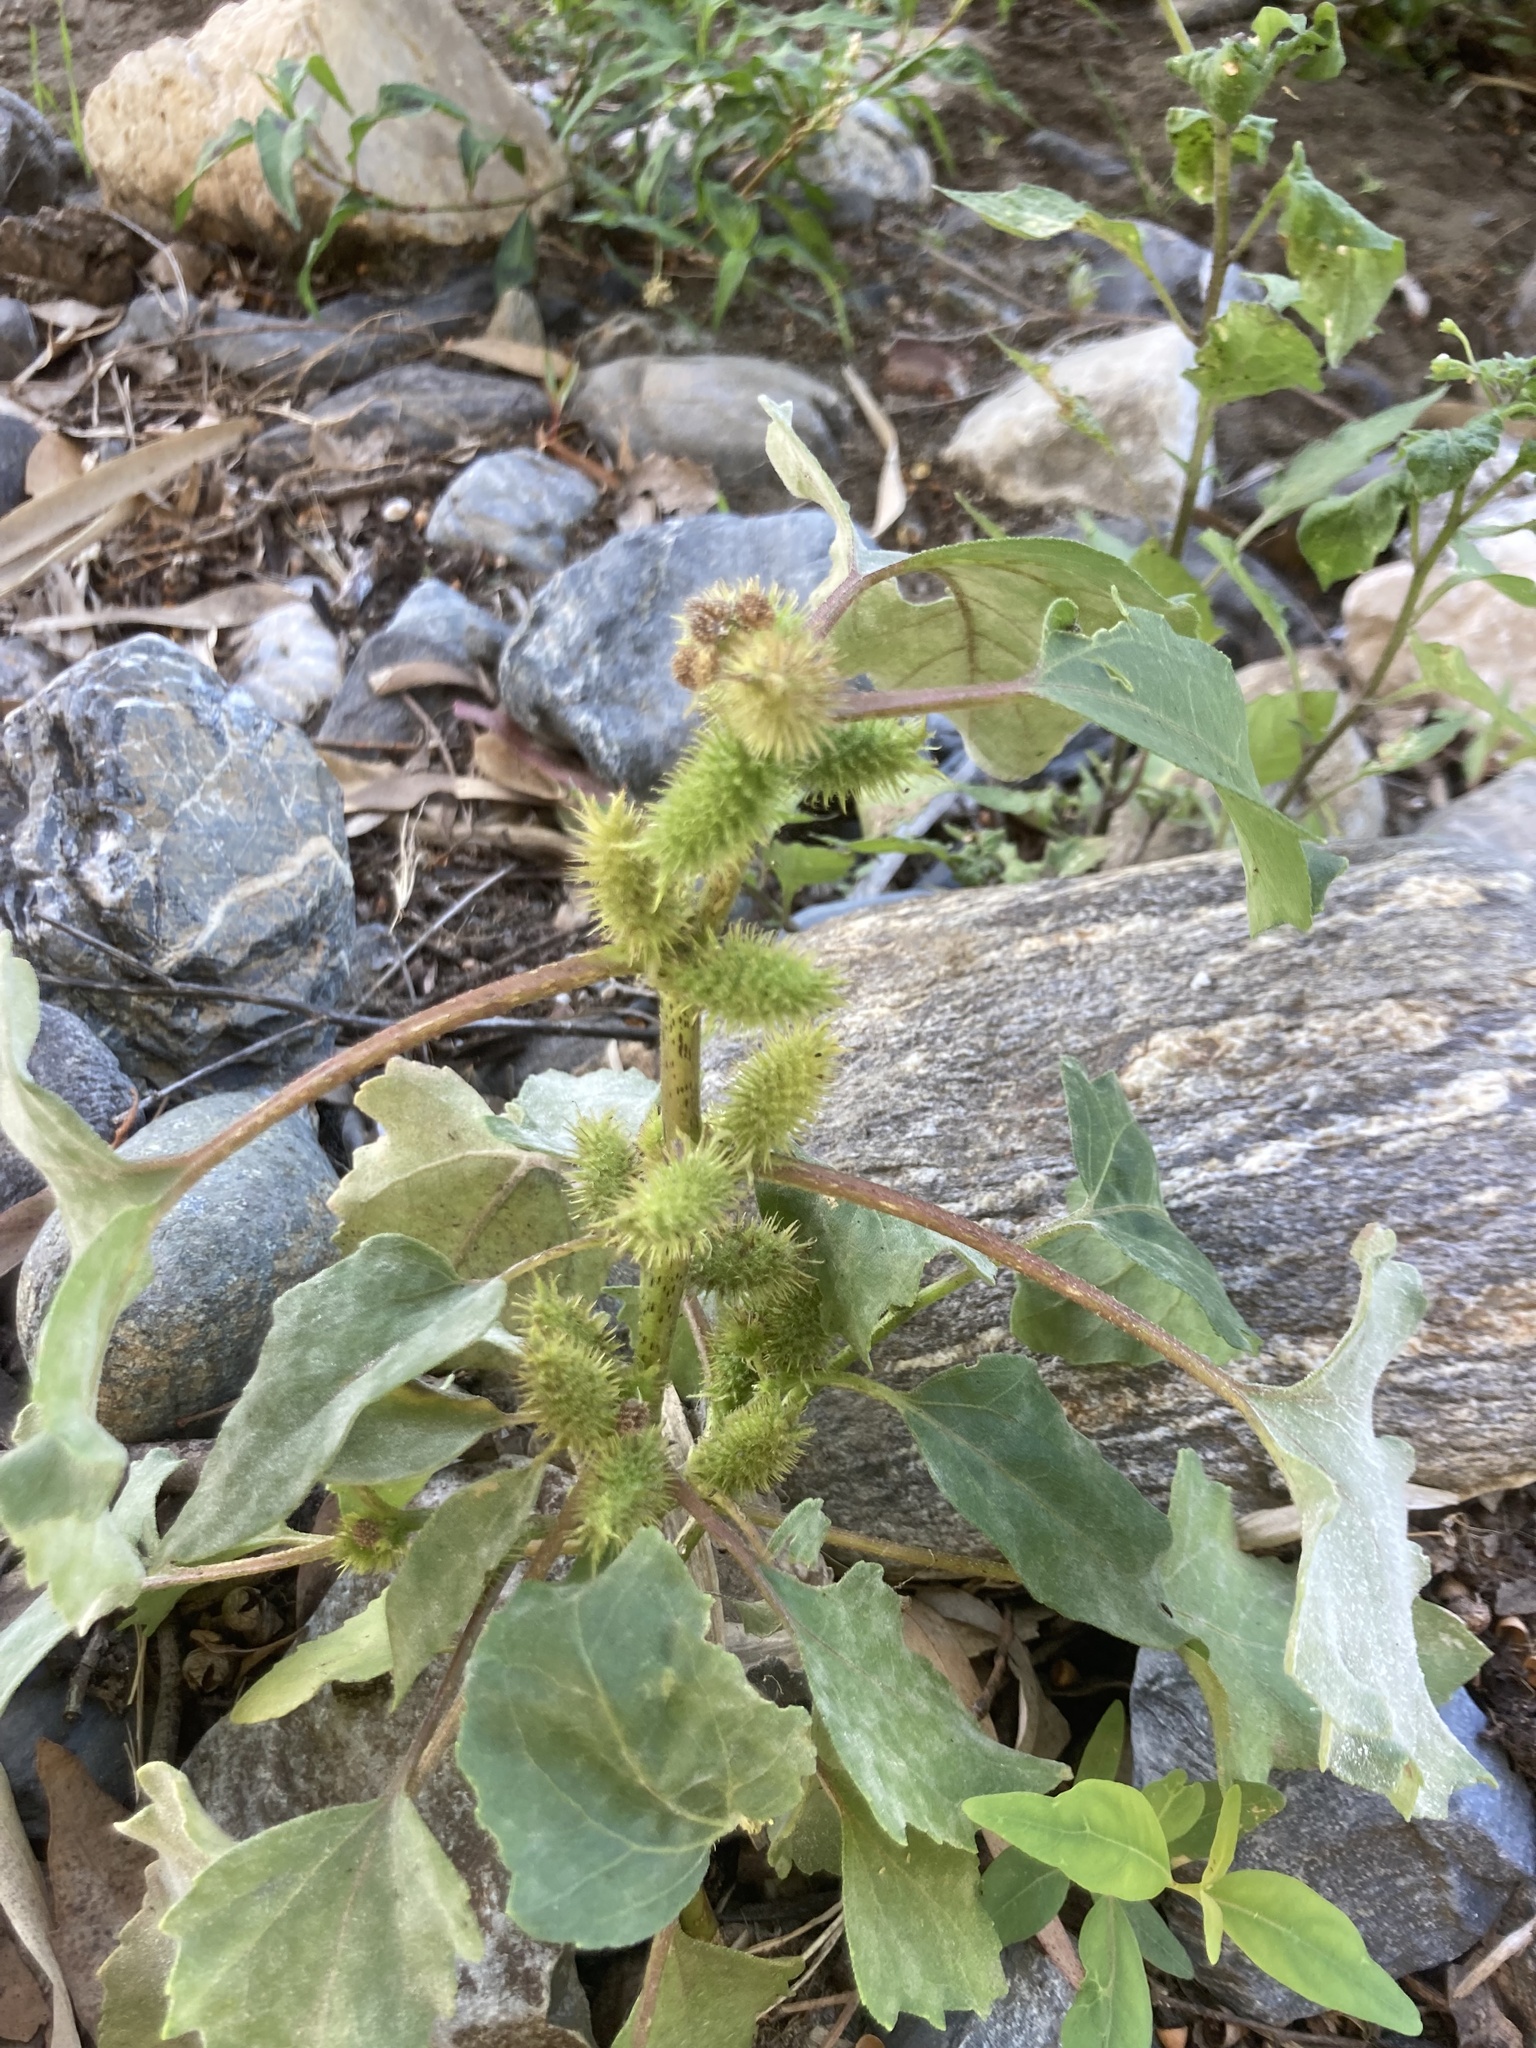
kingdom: Plantae
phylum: Tracheophyta
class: Magnoliopsida
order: Asterales
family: Asteraceae
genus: Xanthium
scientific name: Xanthium strumarium
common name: Rough cocklebur
